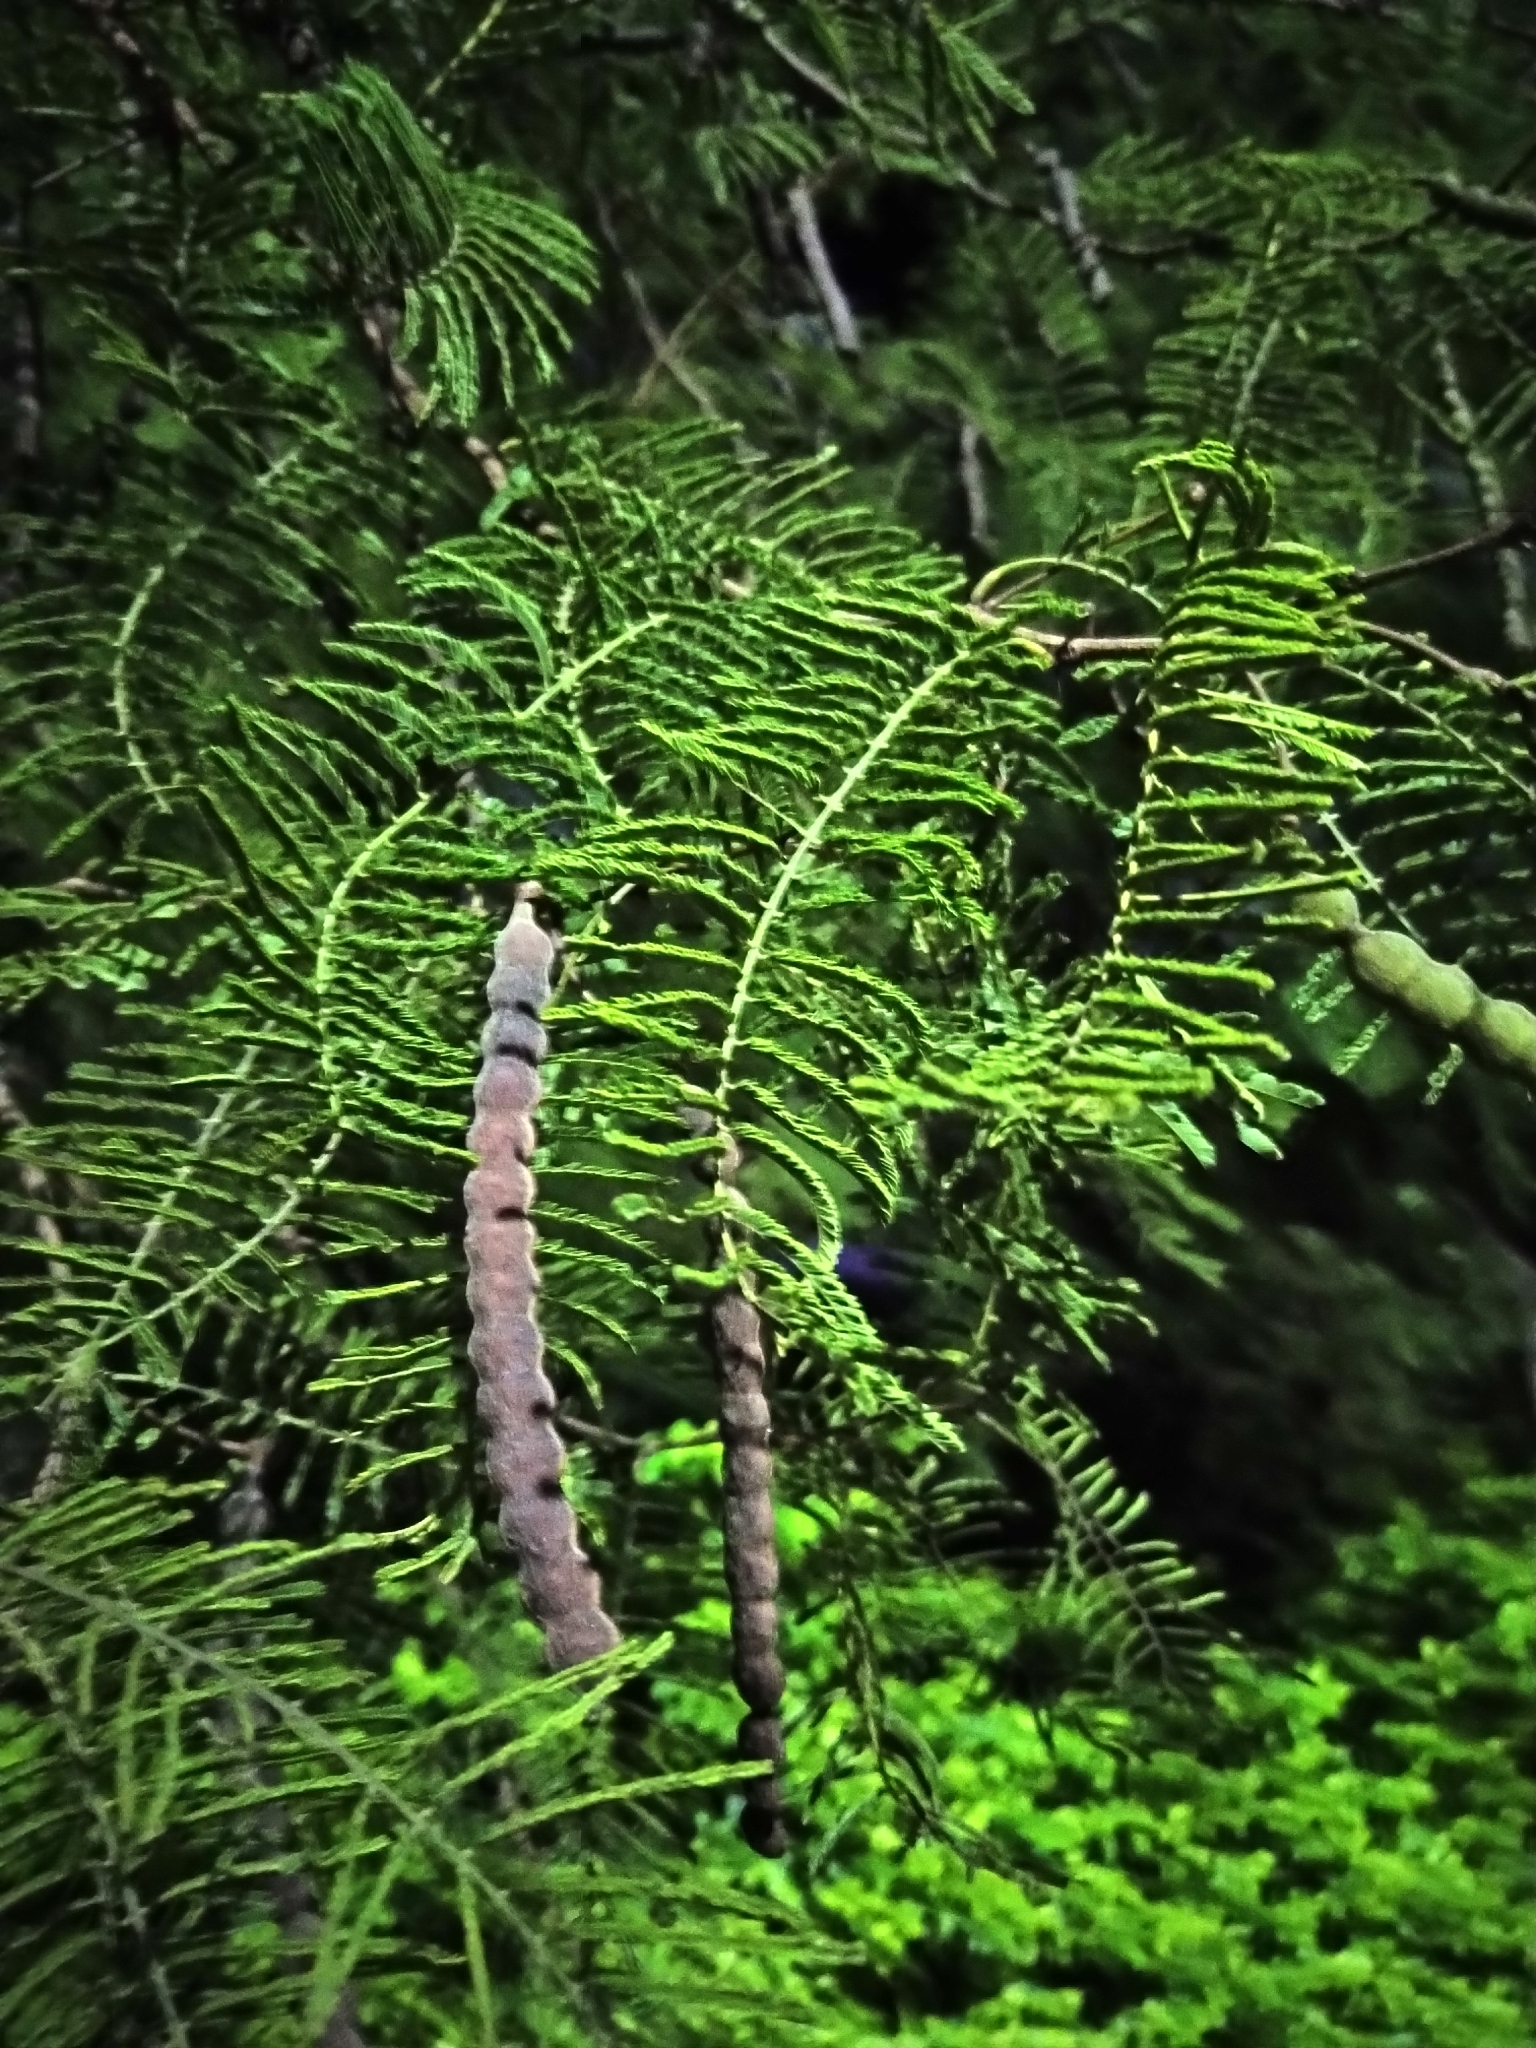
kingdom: Plantae
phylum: Tracheophyta
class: Magnoliopsida
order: Fabales
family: Fabaceae
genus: Vachellia
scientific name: Vachellia aroma
